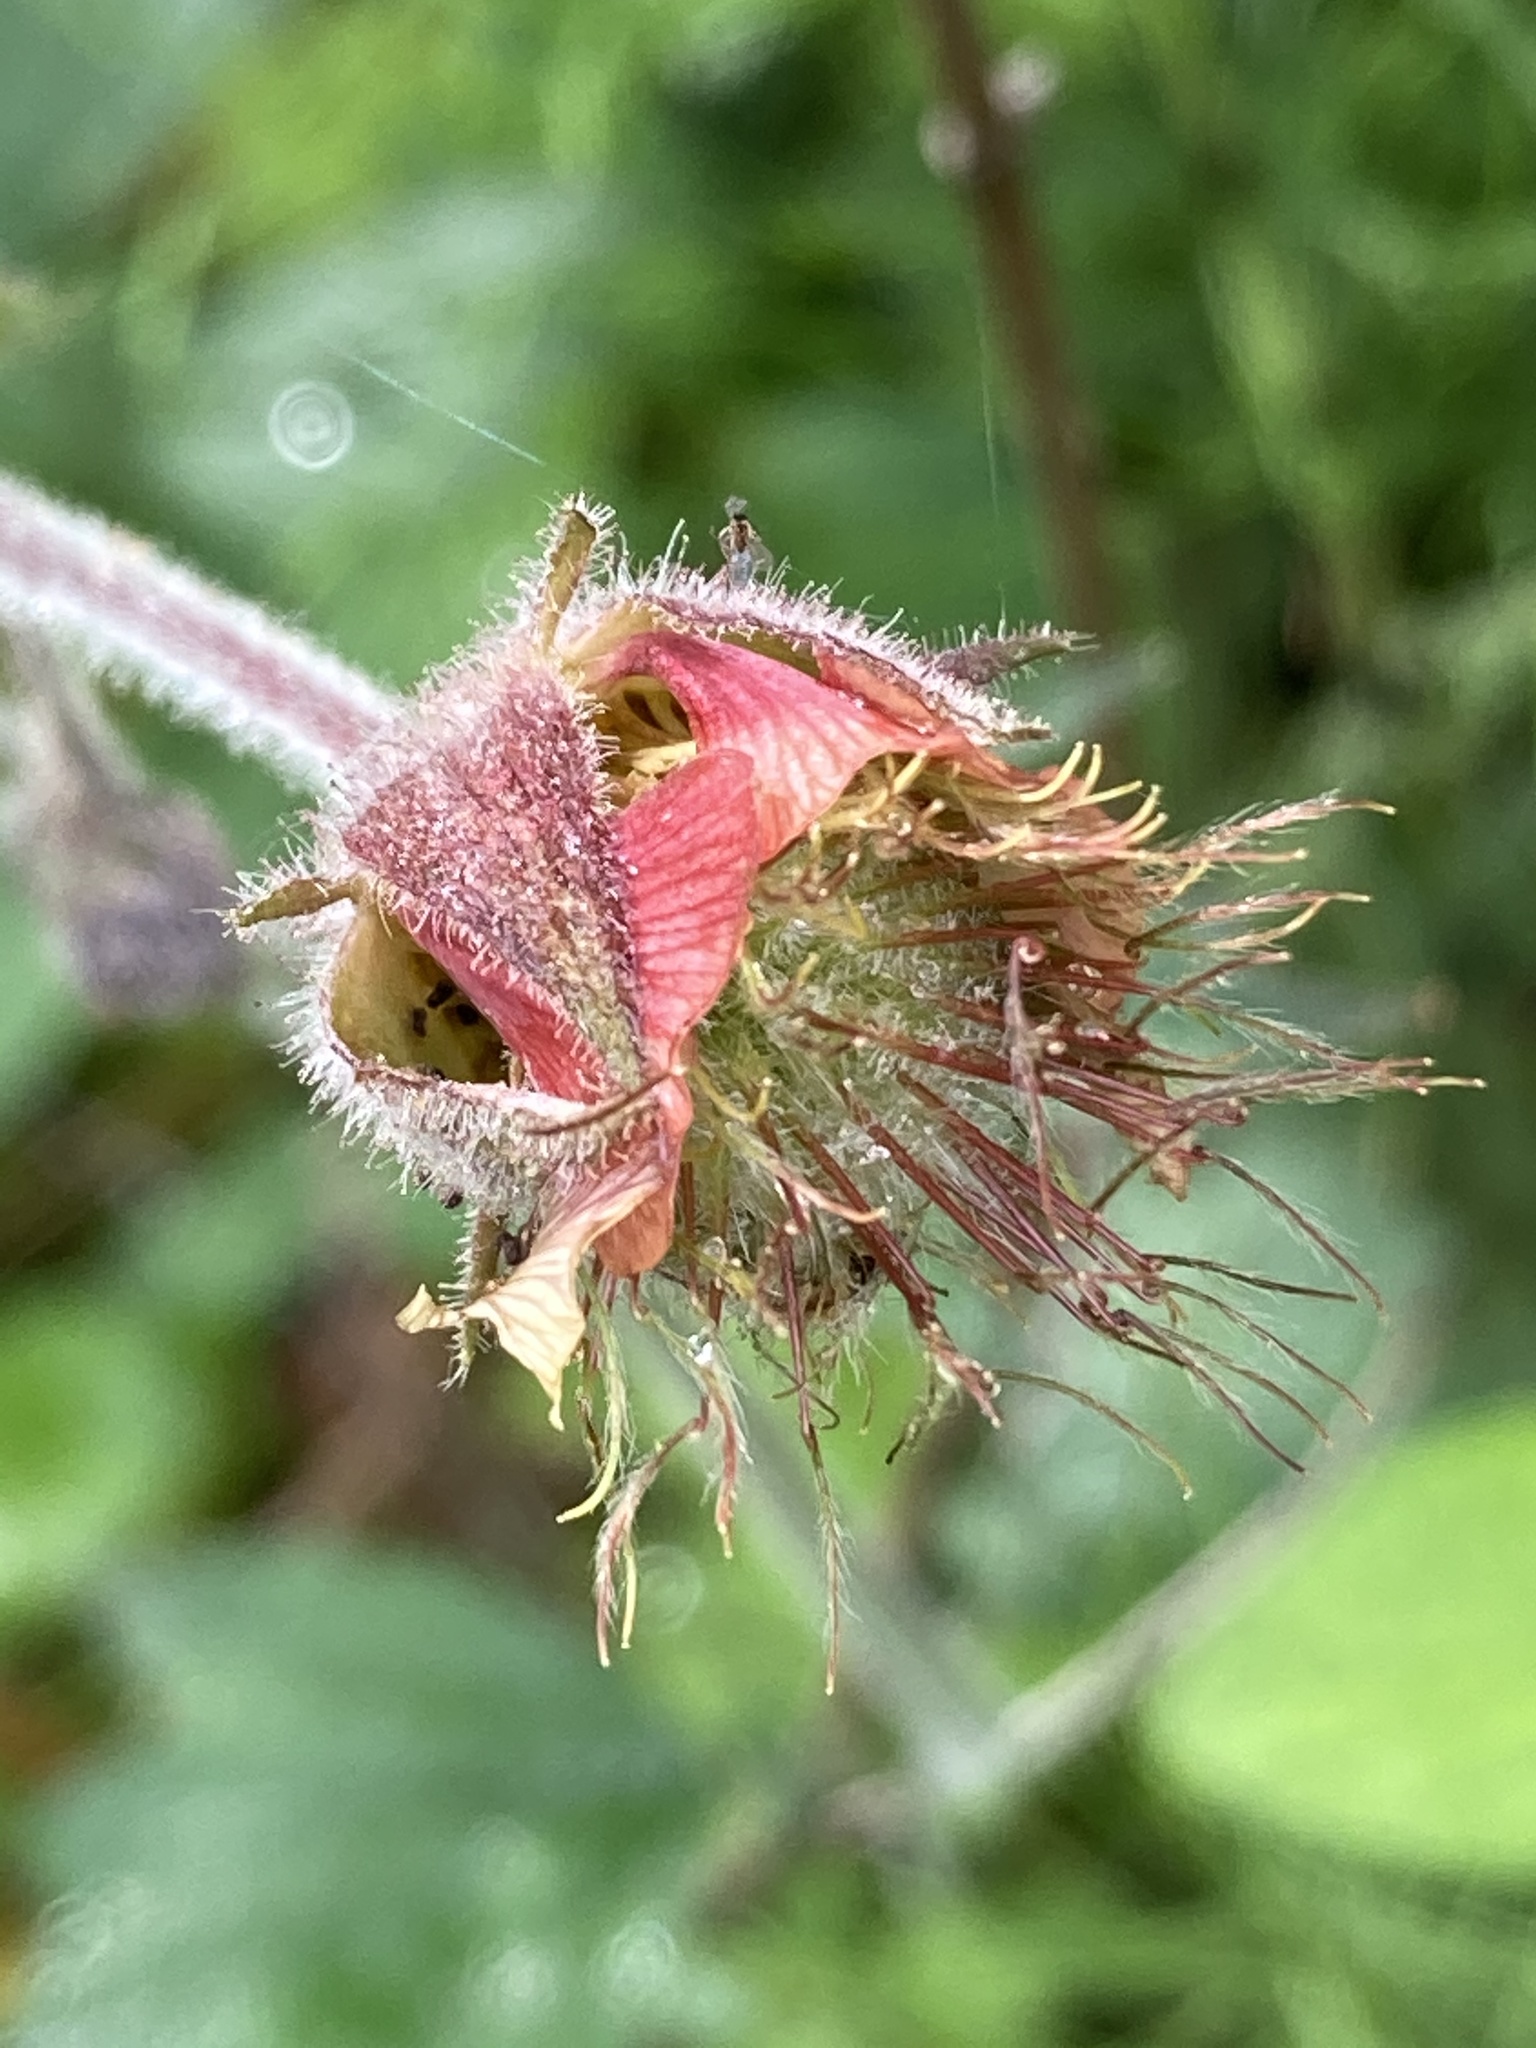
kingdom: Plantae
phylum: Tracheophyta
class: Magnoliopsida
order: Rosales
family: Rosaceae
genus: Geum
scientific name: Geum rivale
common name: Water avens
